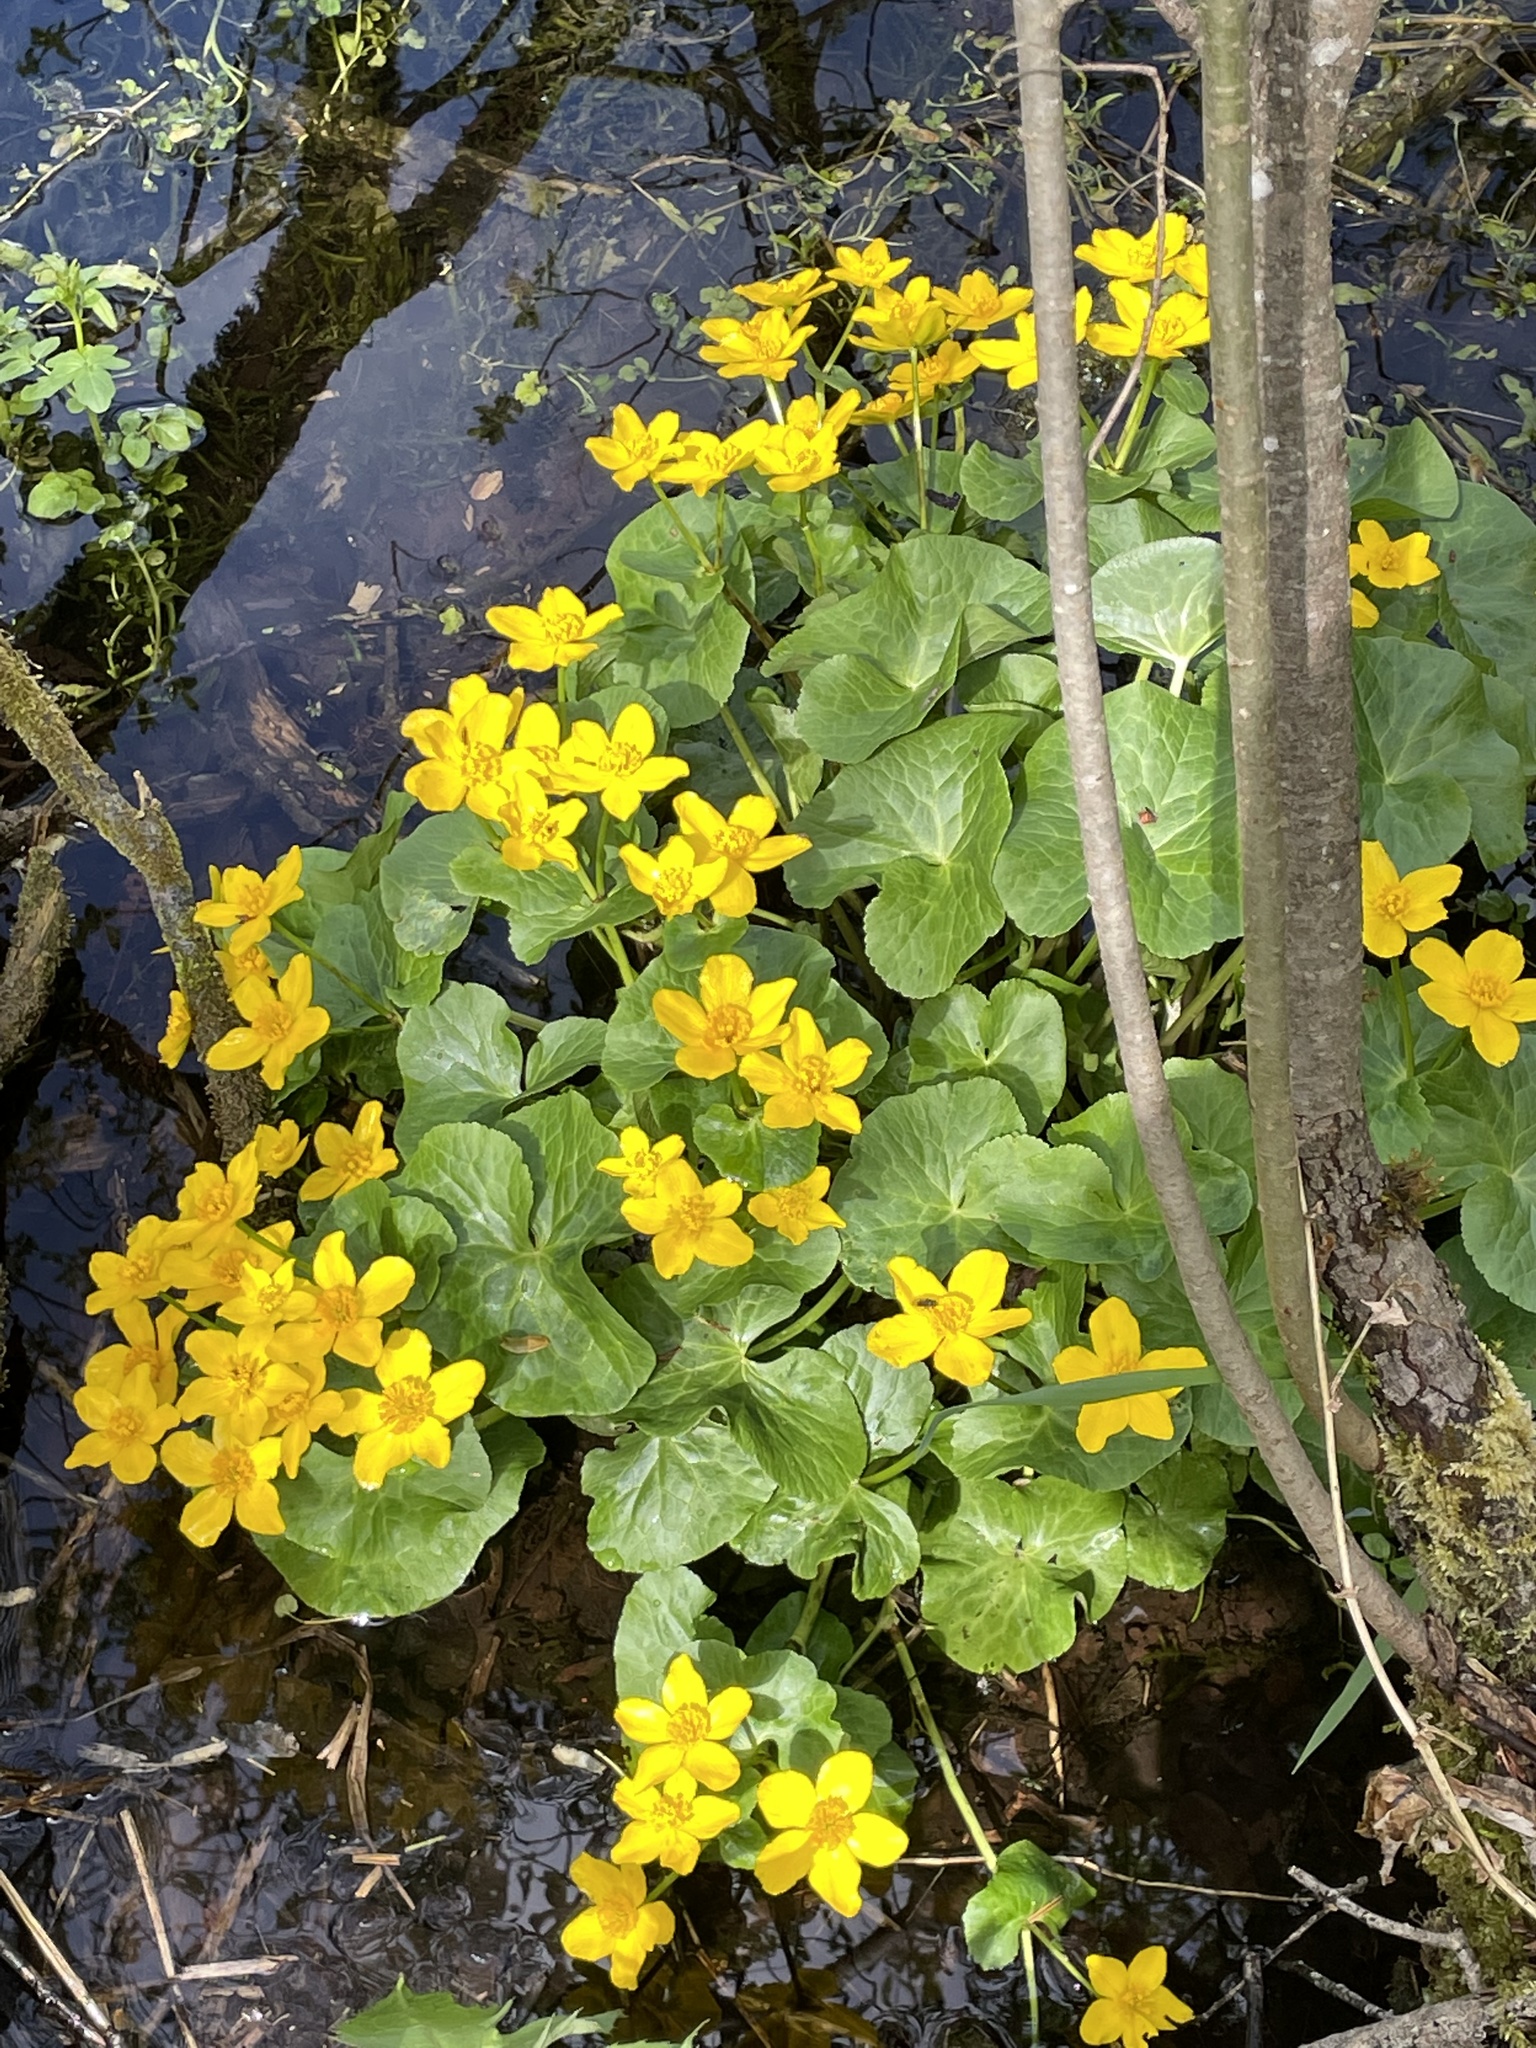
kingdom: Plantae
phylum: Tracheophyta
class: Magnoliopsida
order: Ranunculales
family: Ranunculaceae
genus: Caltha
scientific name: Caltha palustris
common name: Marsh marigold
